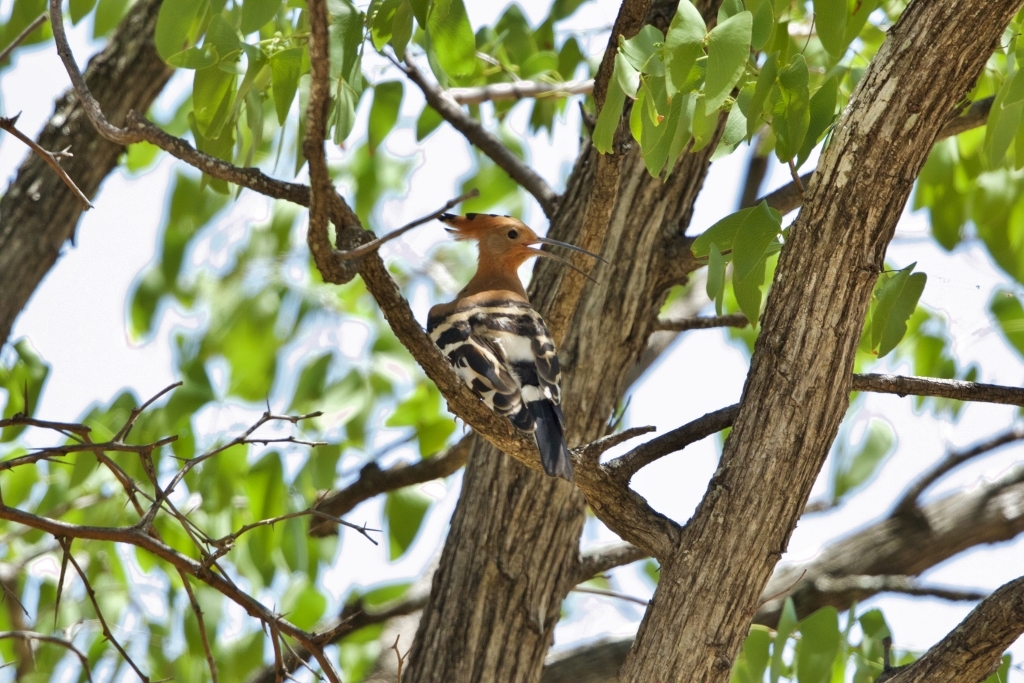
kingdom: Animalia
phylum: Chordata
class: Aves
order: Bucerotiformes
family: Upupidae
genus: Upupa
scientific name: Upupa africana
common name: African hoopoe
